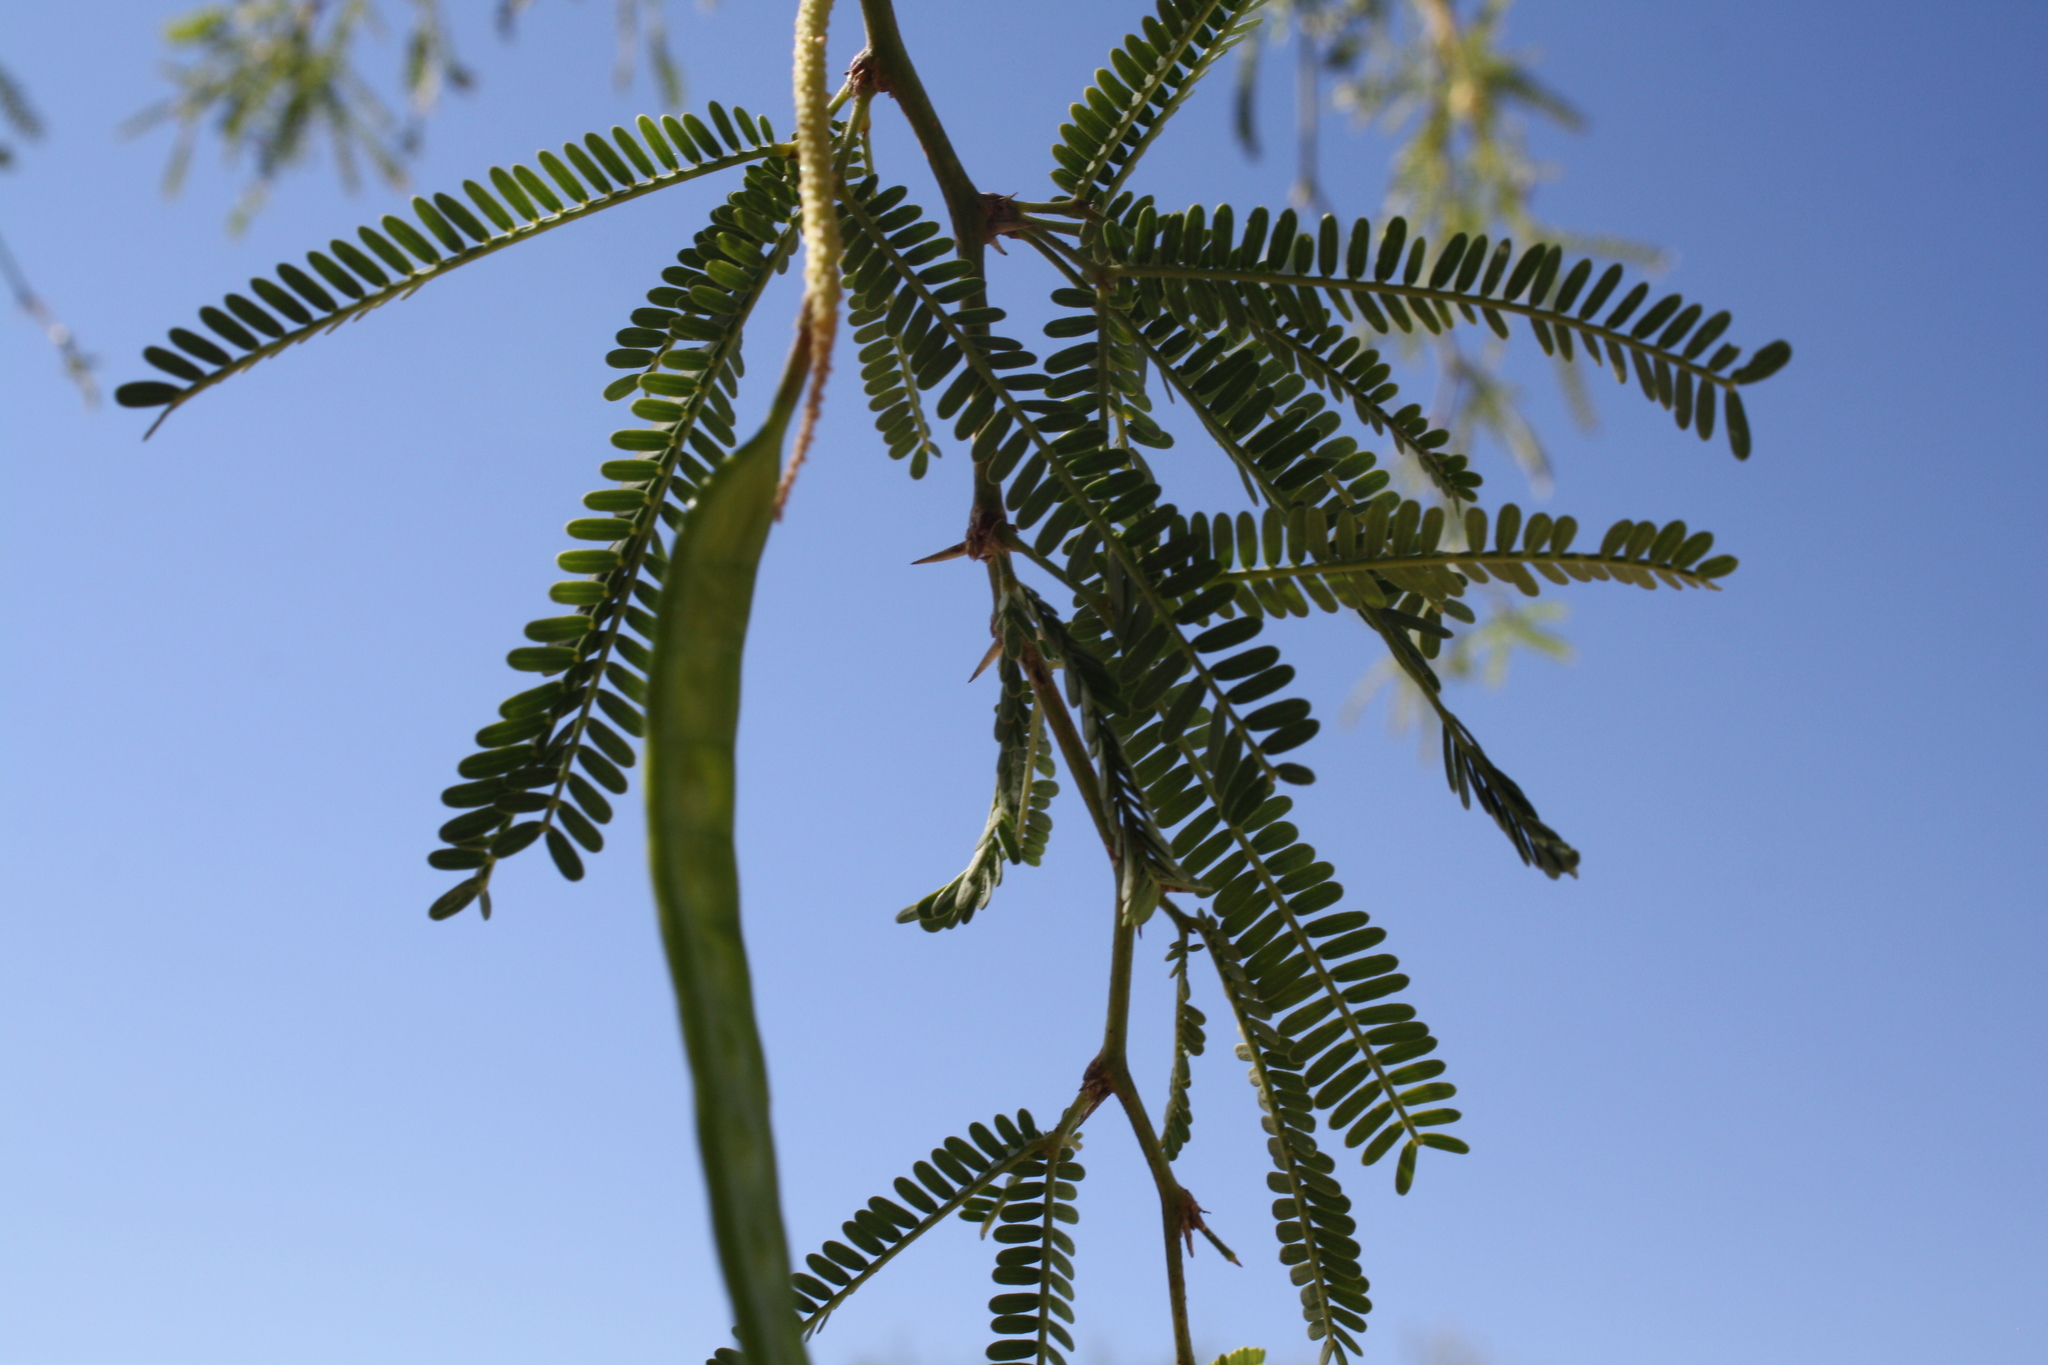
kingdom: Plantae
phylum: Tracheophyta
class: Magnoliopsida
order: Fabales
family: Fabaceae
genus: Prosopis
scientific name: Prosopis laevigata
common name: Smooth mesquite
